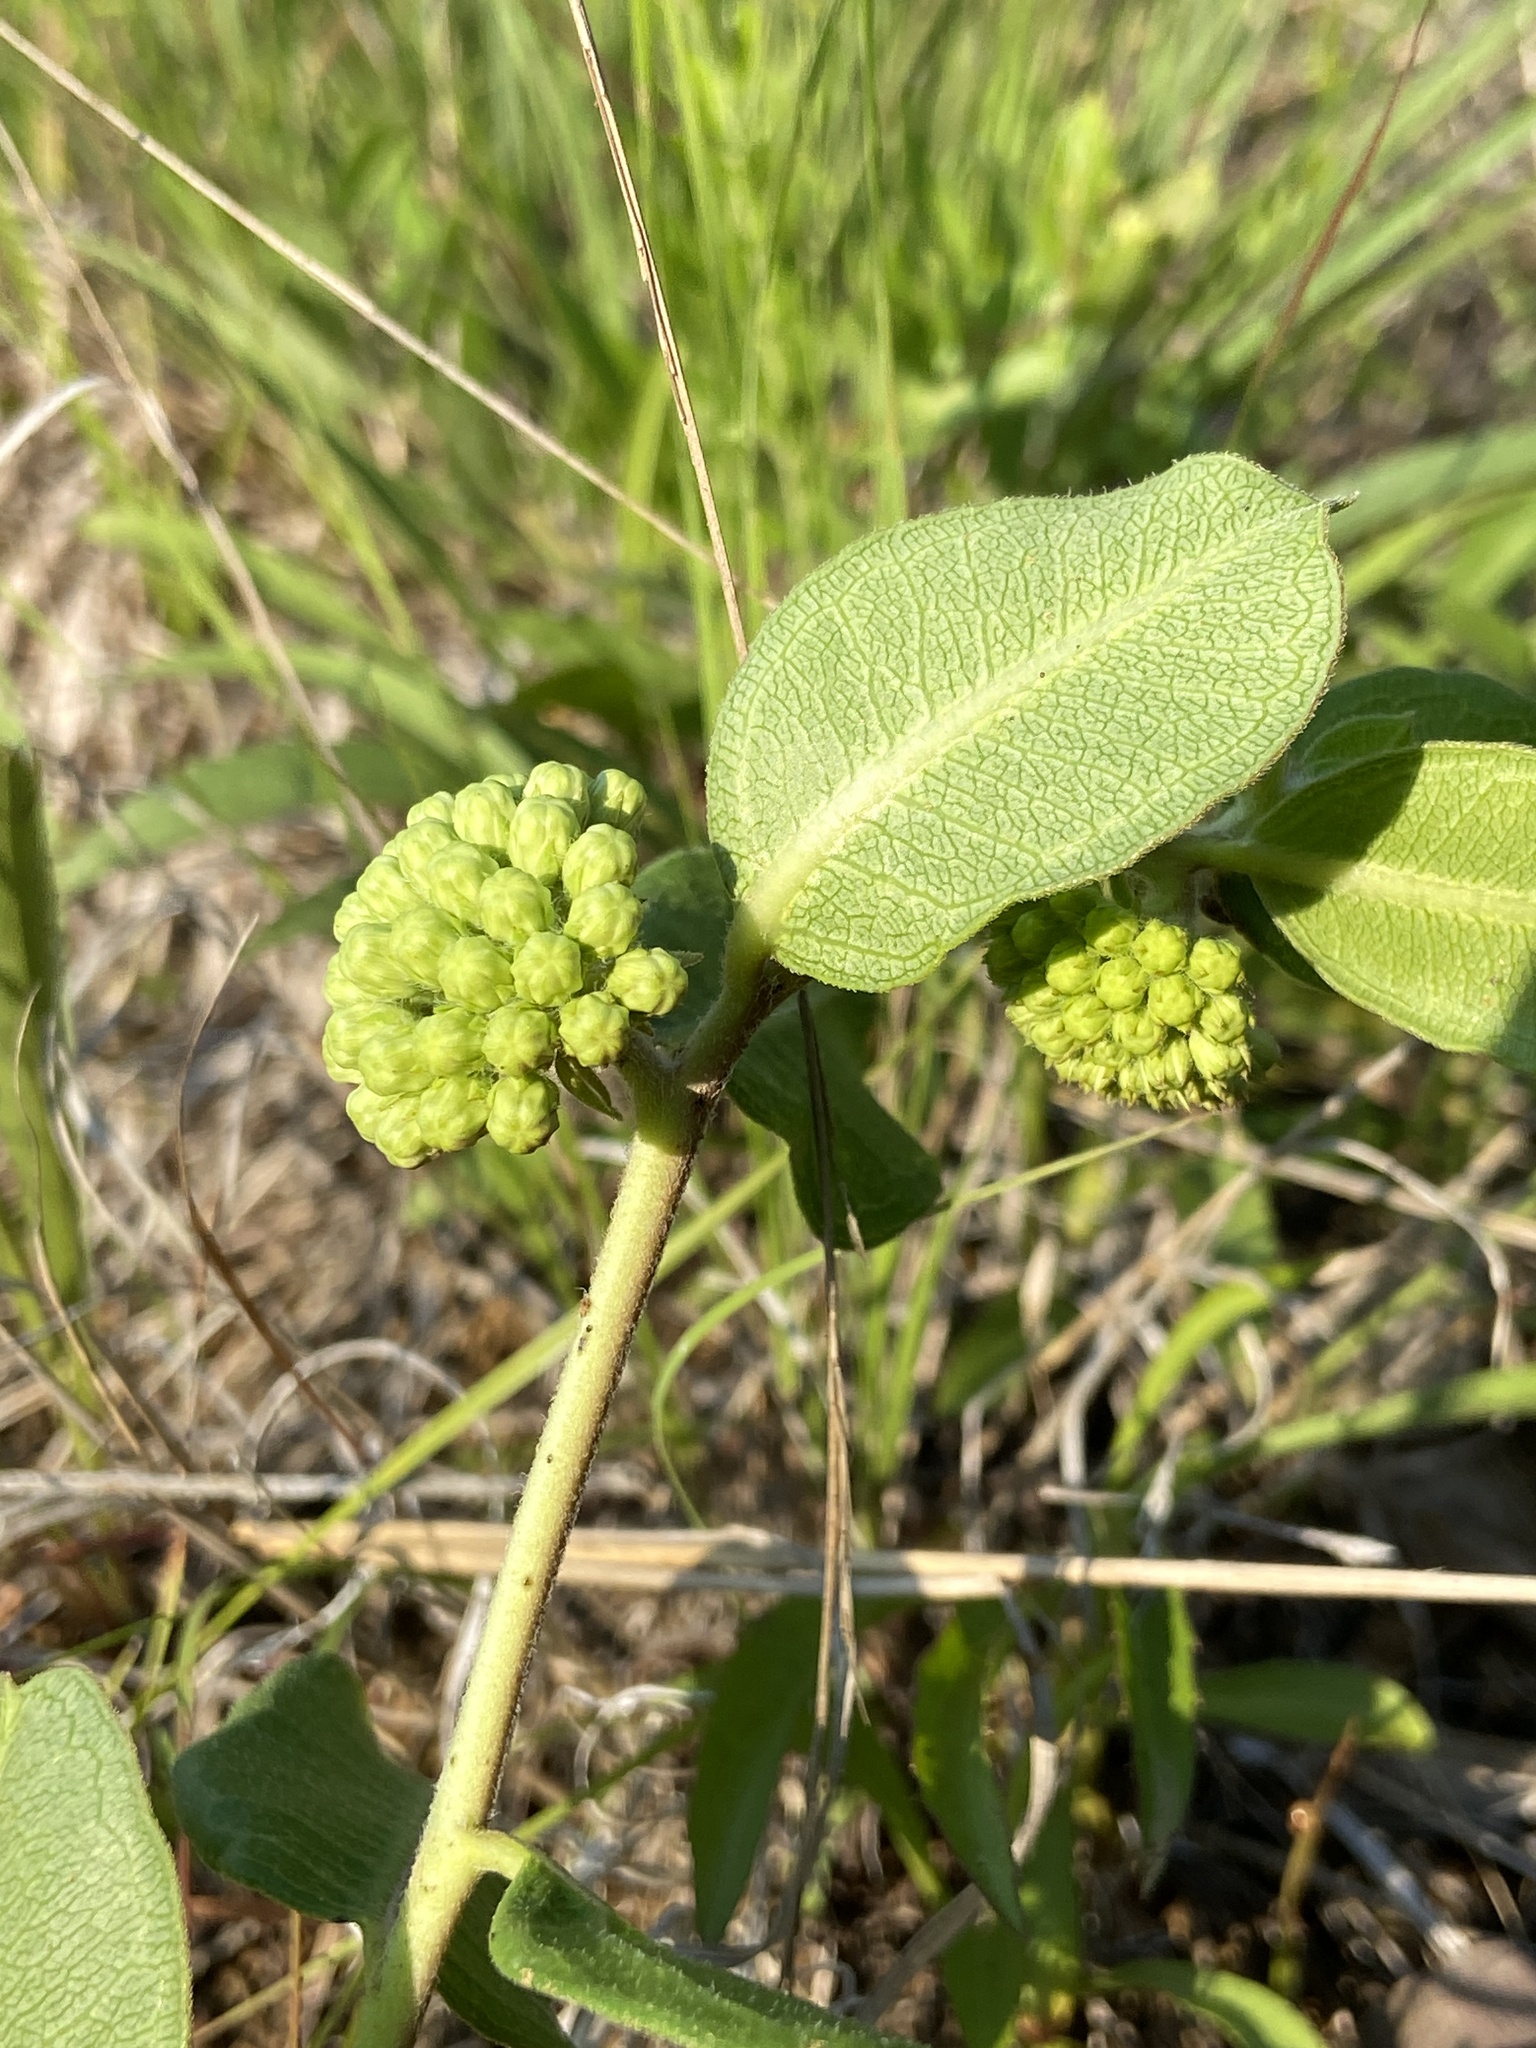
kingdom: Plantae
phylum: Tracheophyta
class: Magnoliopsida
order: Gentianales
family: Apocynaceae
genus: Asclepias
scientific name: Asclepias viridiflora
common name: Green comet milkweed
